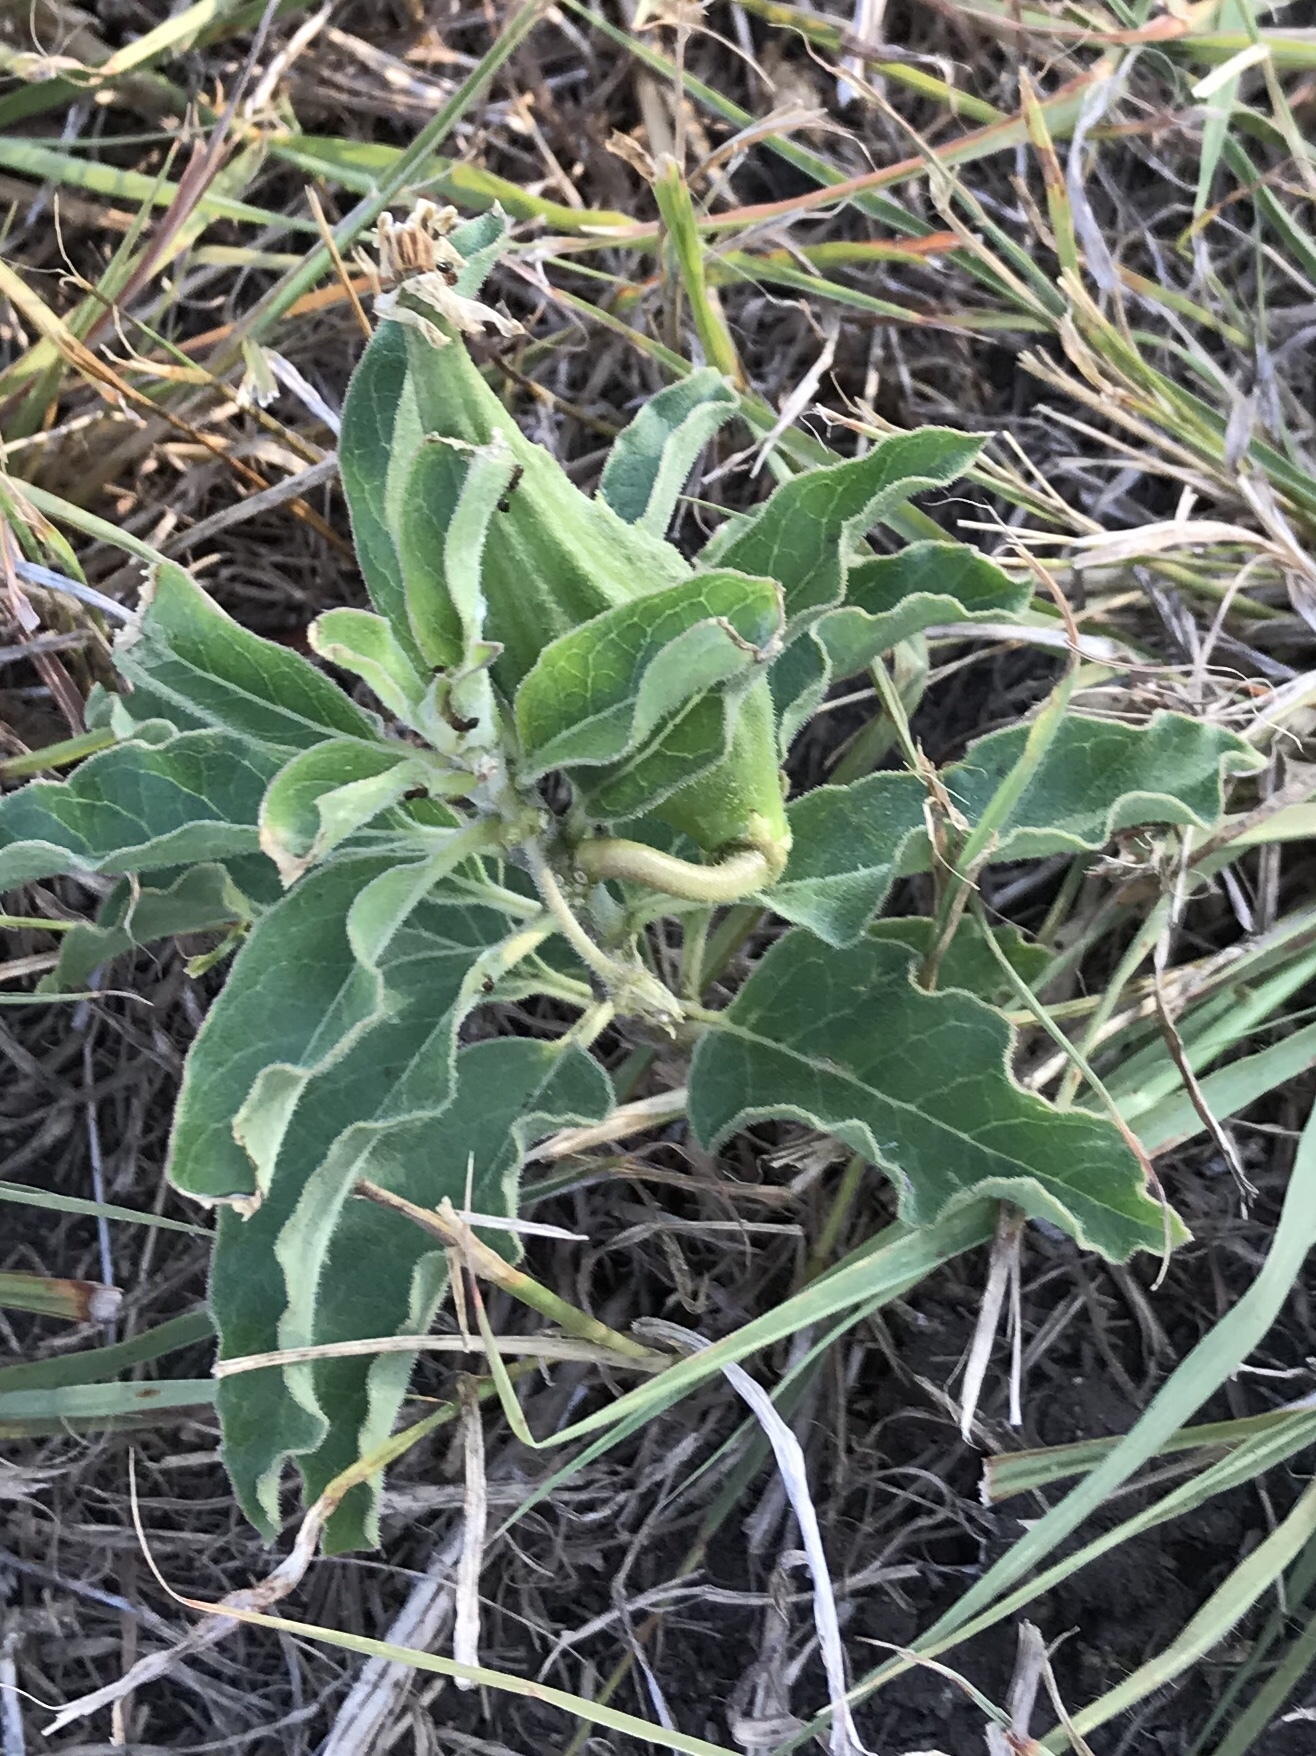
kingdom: Plantae
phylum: Tracheophyta
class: Magnoliopsida
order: Gentianales
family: Apocynaceae
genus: Asclepias
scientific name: Asclepias oenotheroides
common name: Zizotes milkweed
